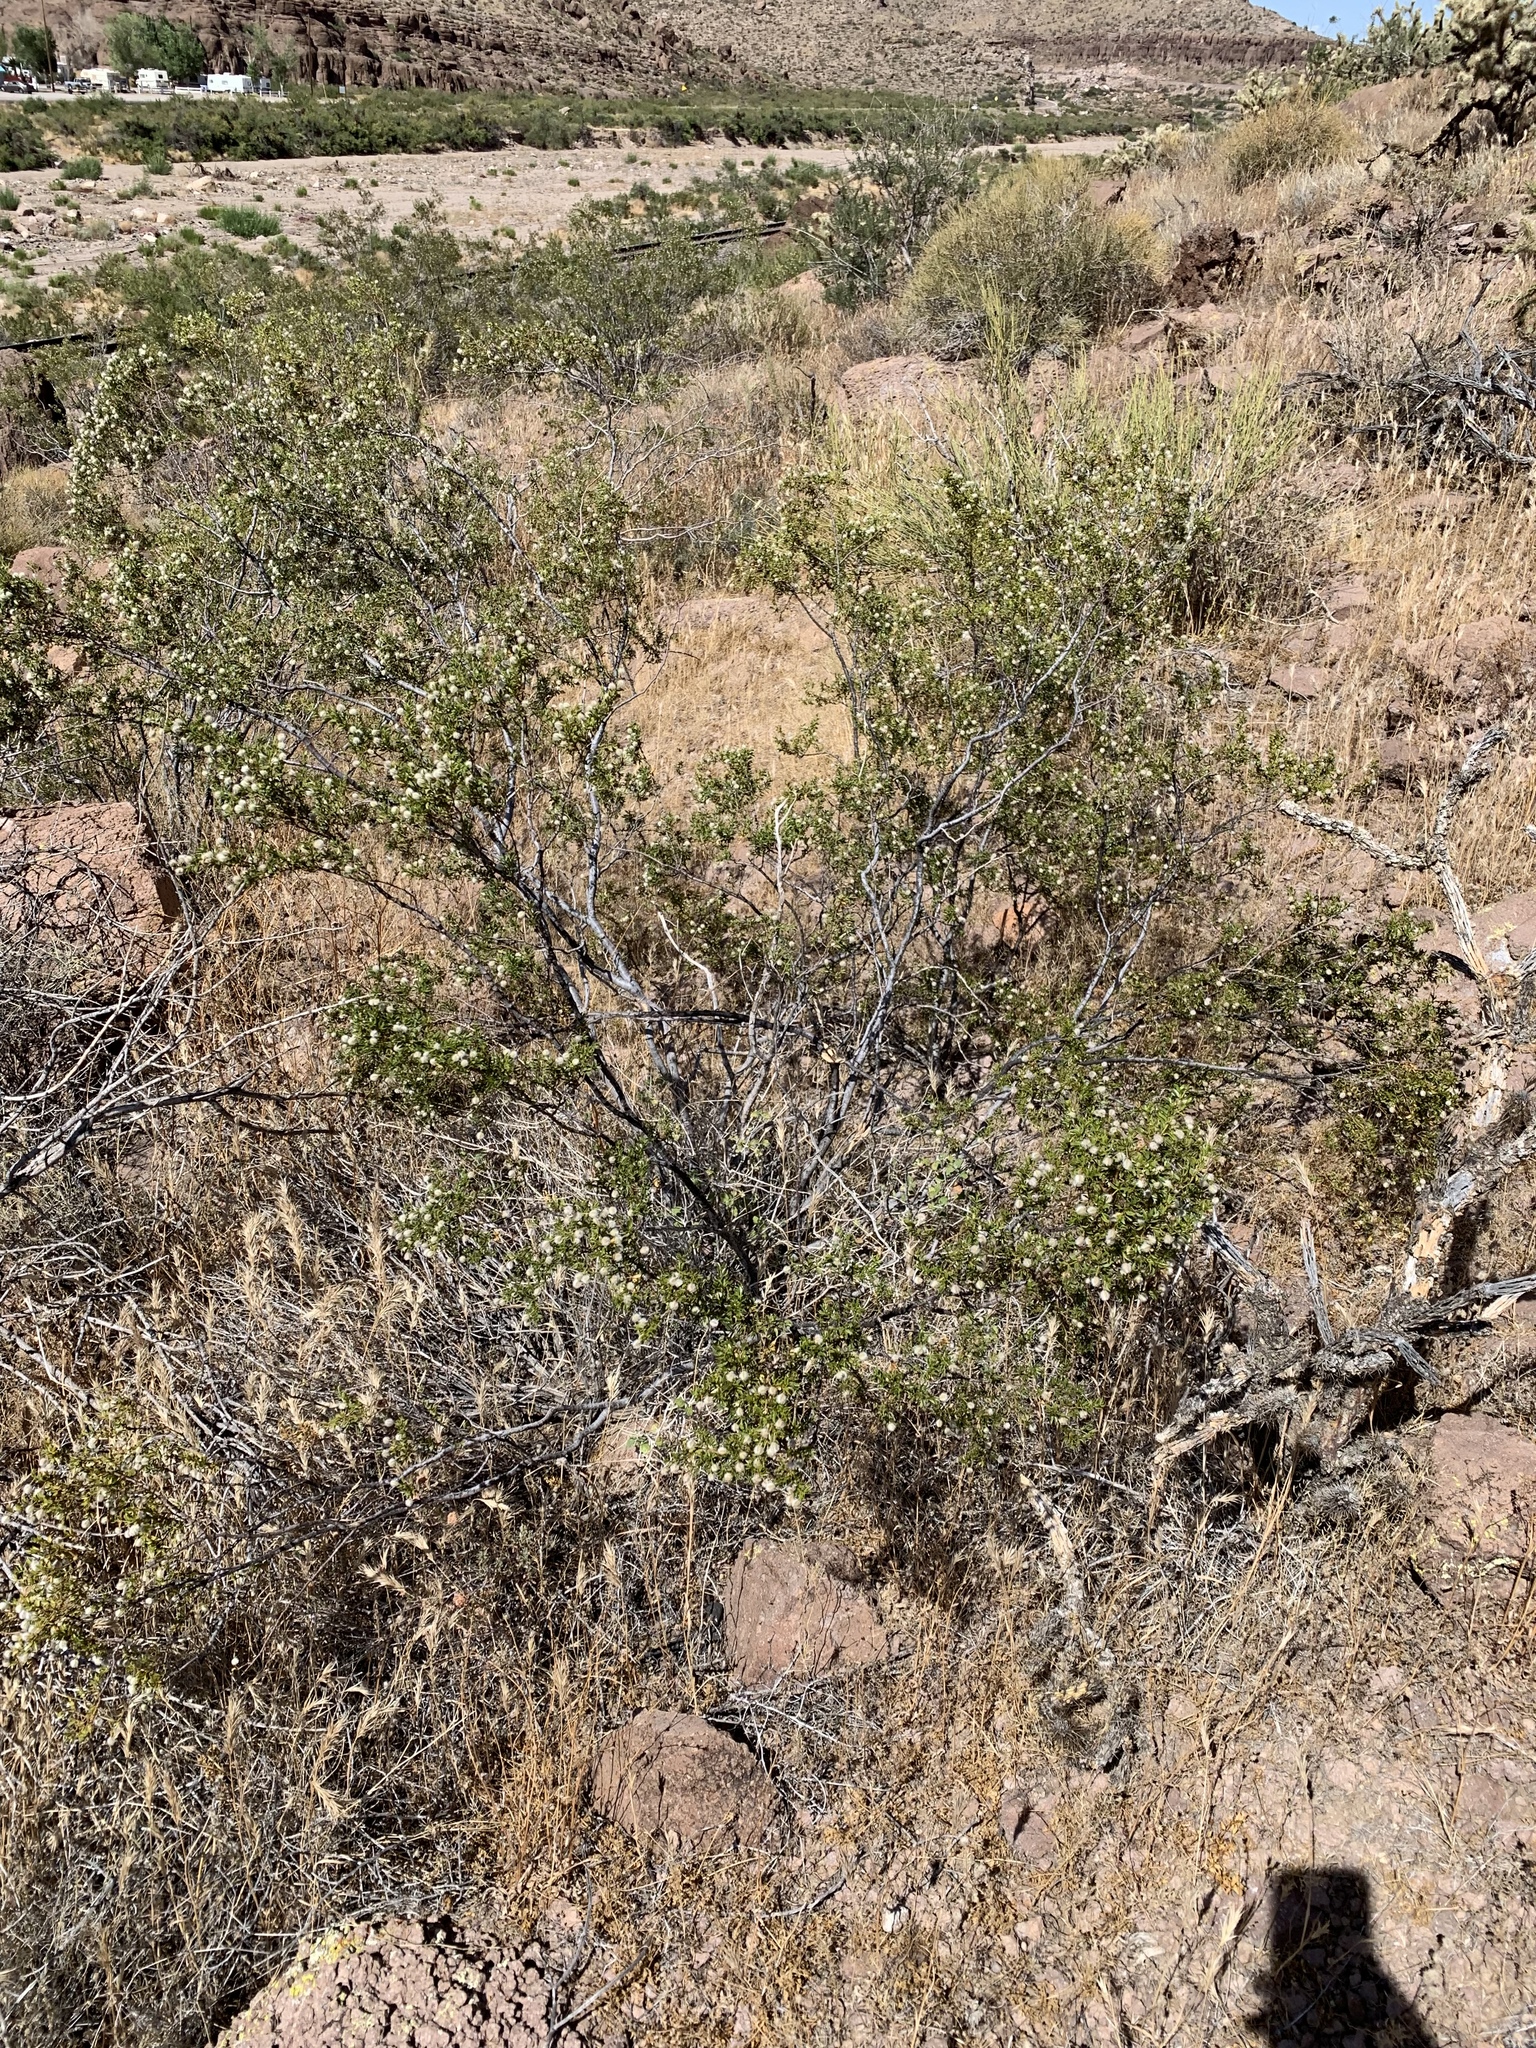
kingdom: Plantae
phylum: Tracheophyta
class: Magnoliopsida
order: Zygophyllales
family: Zygophyllaceae
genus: Larrea
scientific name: Larrea tridentata
